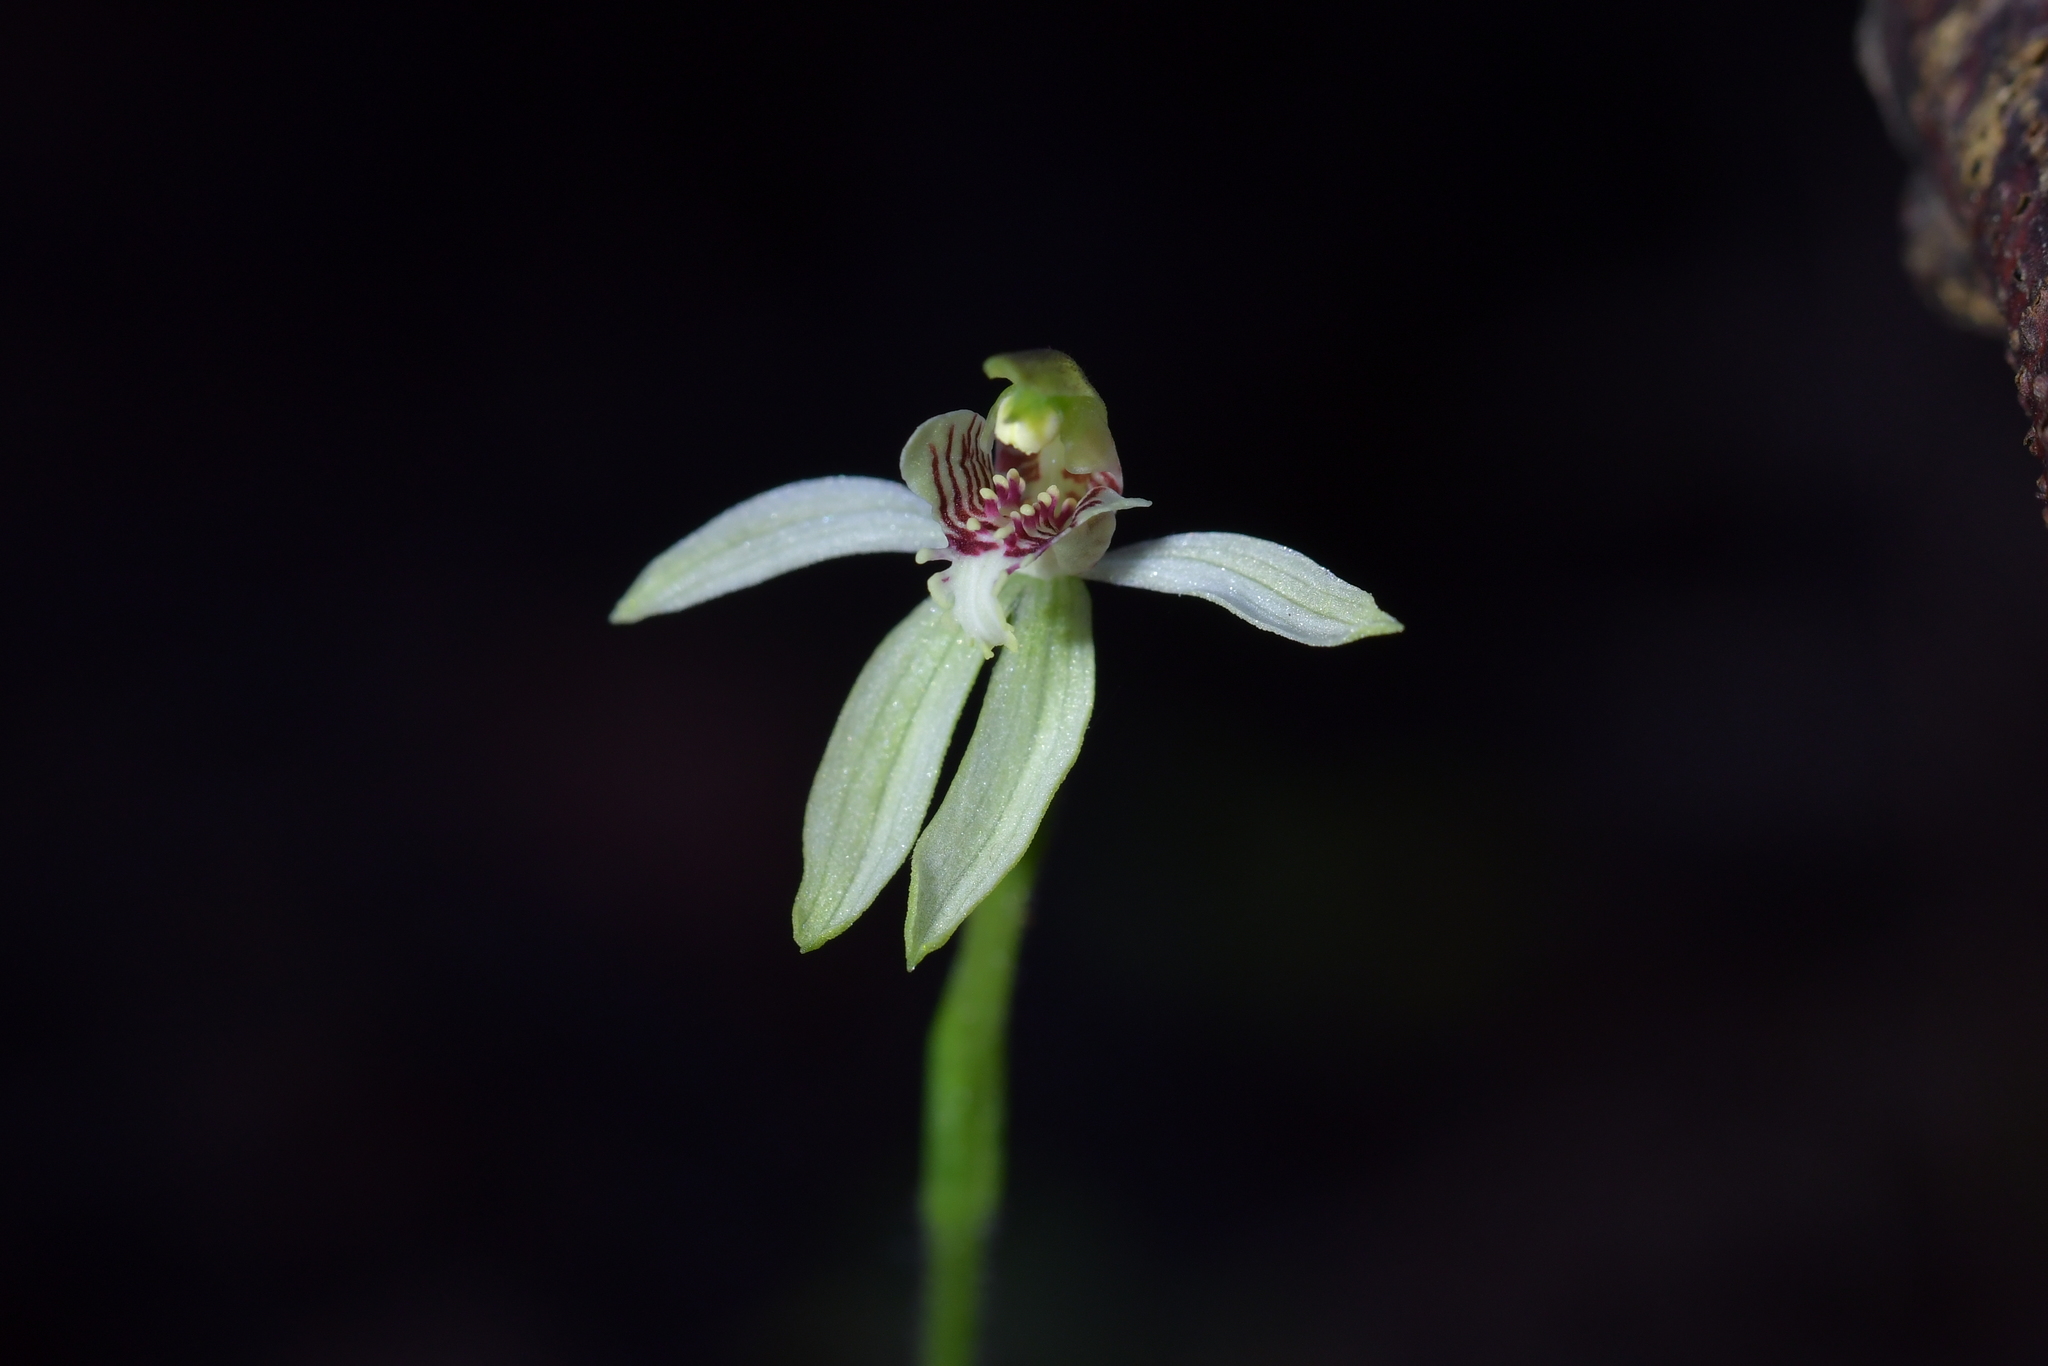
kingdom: Plantae
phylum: Tracheophyta
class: Liliopsida
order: Asparagales
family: Orchidaceae
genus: Caladenia
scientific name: Caladenia chlorostyla
